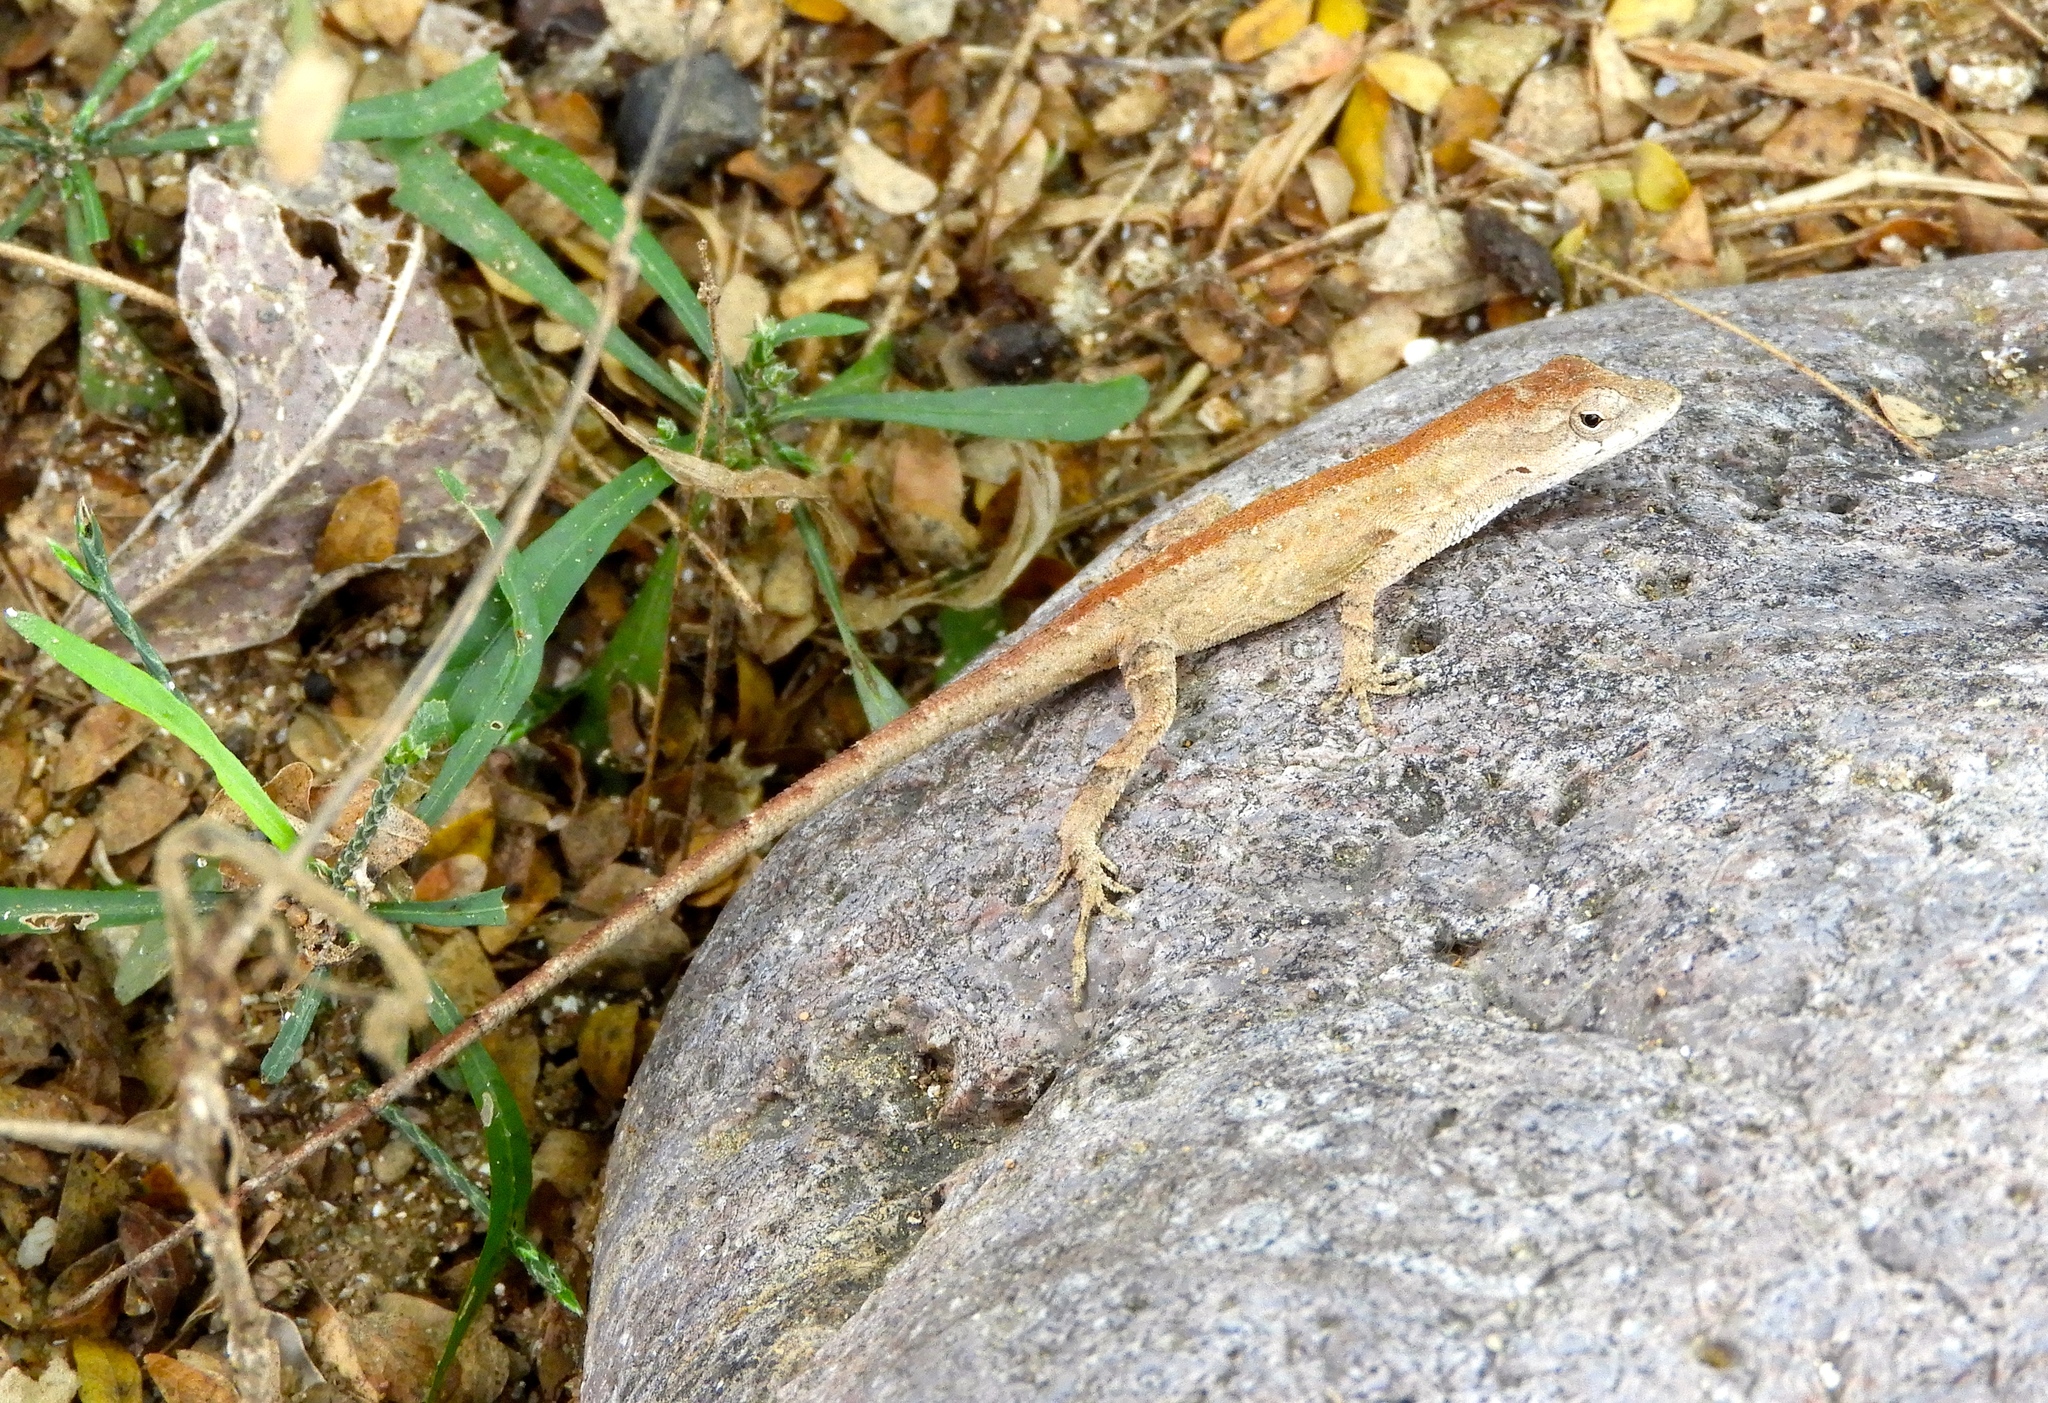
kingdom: Animalia
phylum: Chordata
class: Squamata
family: Dactyloidae
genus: Anolis
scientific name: Anolis nebulosus
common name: Clouded anole
